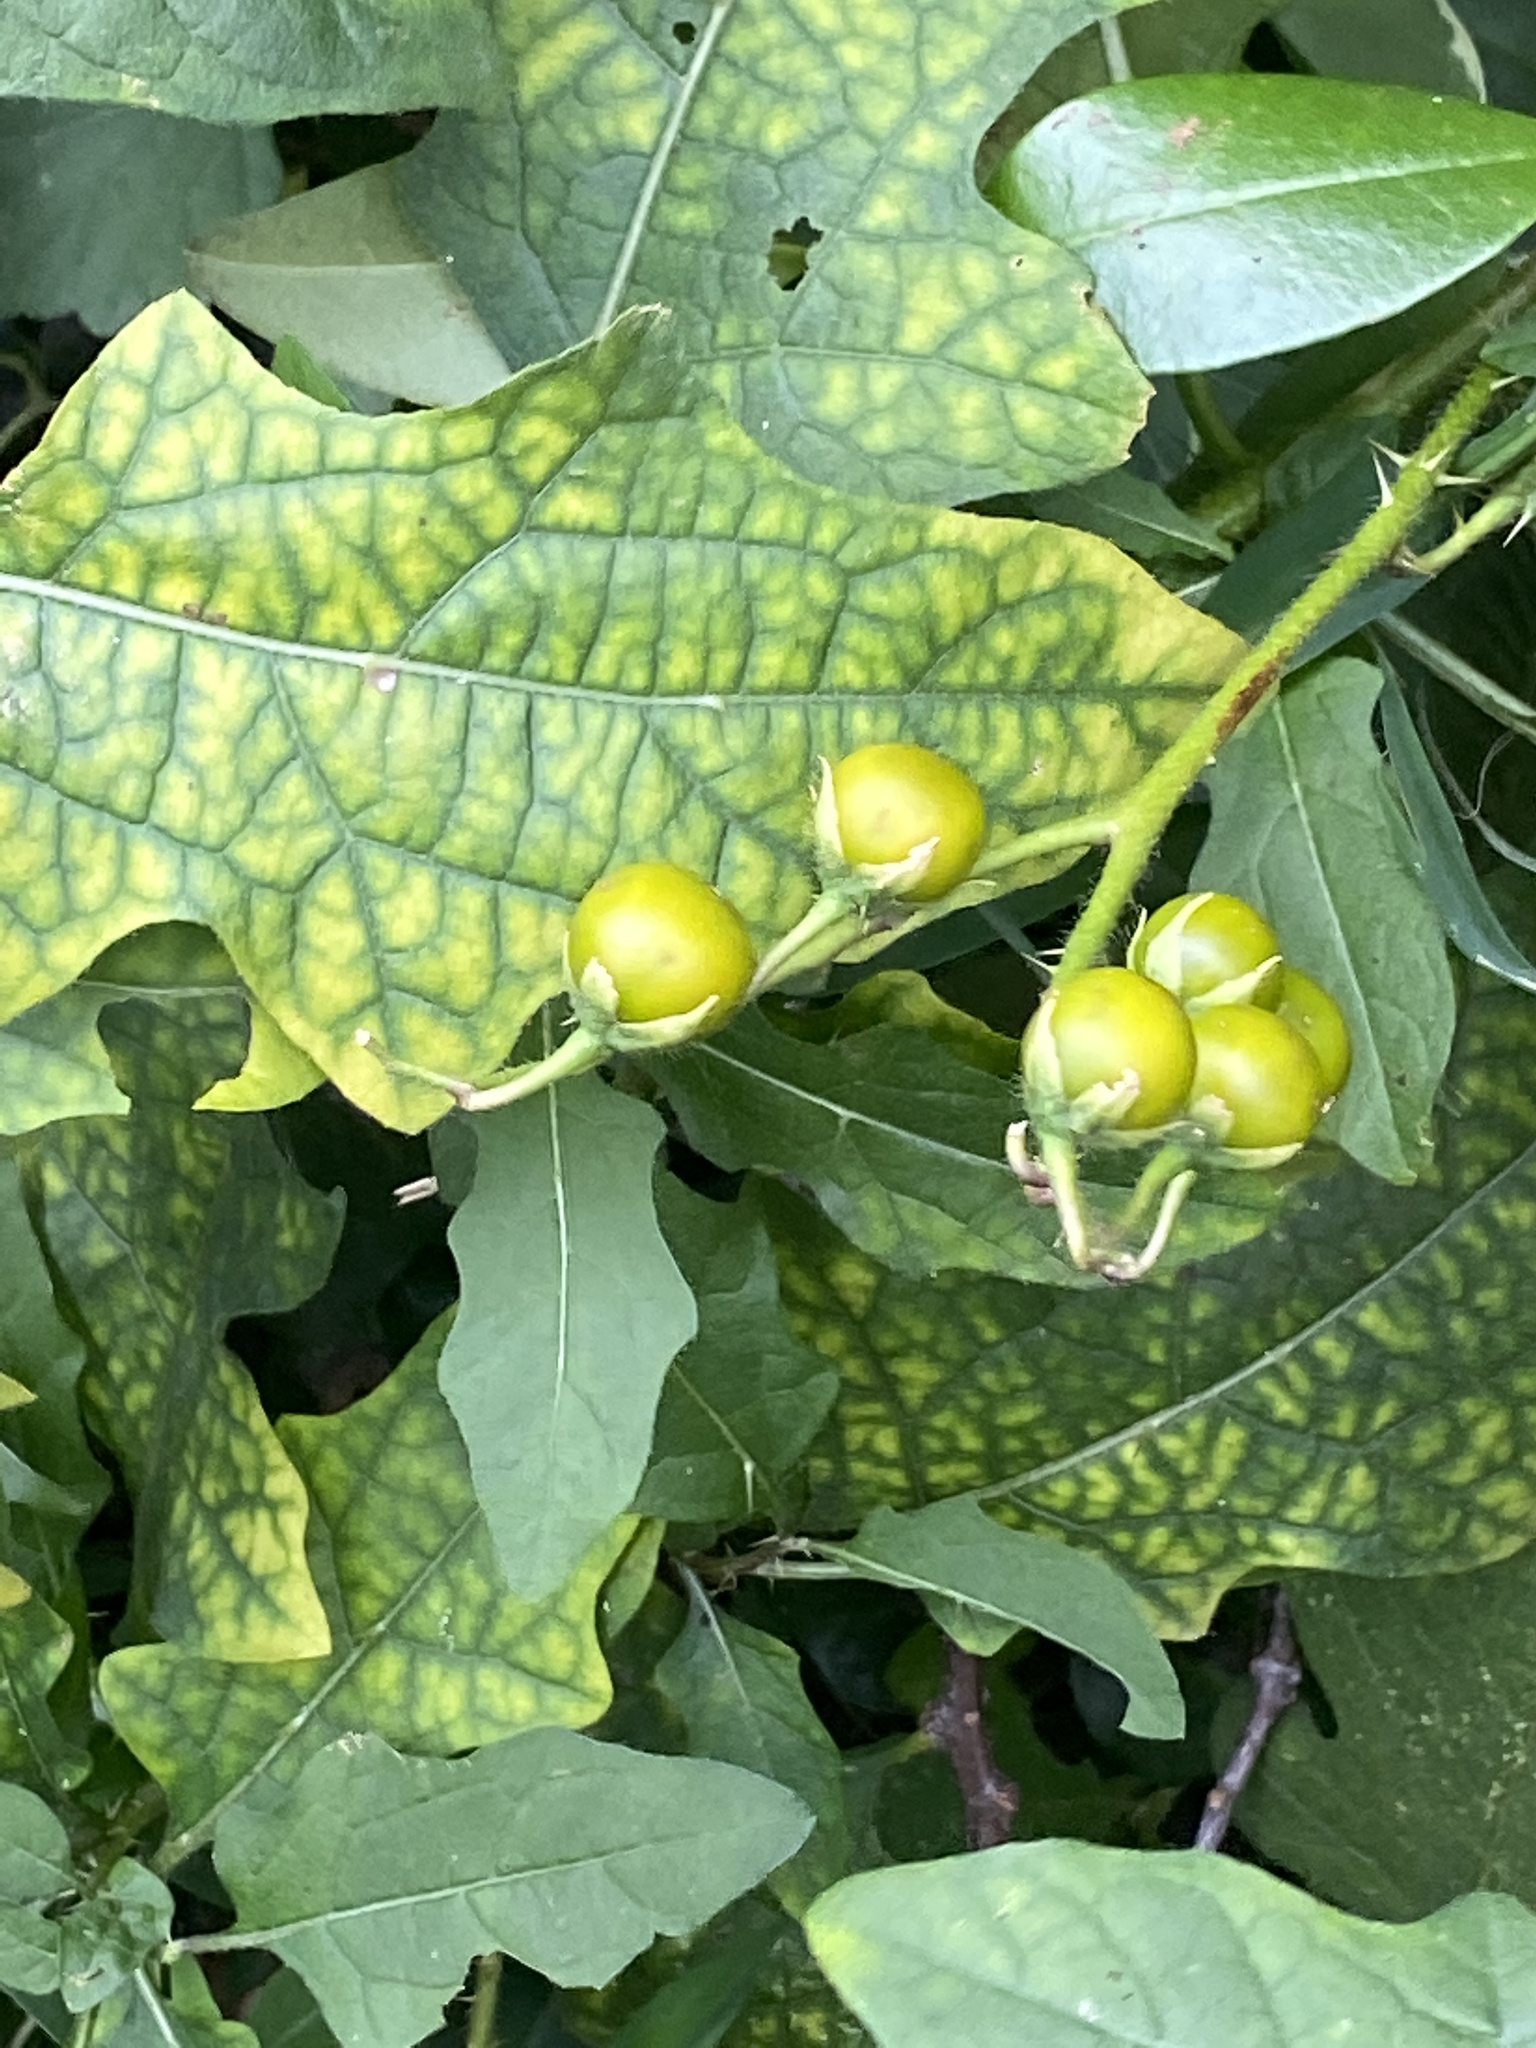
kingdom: Plantae
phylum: Tracheophyta
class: Magnoliopsida
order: Solanales
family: Solanaceae
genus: Solanum
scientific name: Solanum carolinense
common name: Horse-nettle
